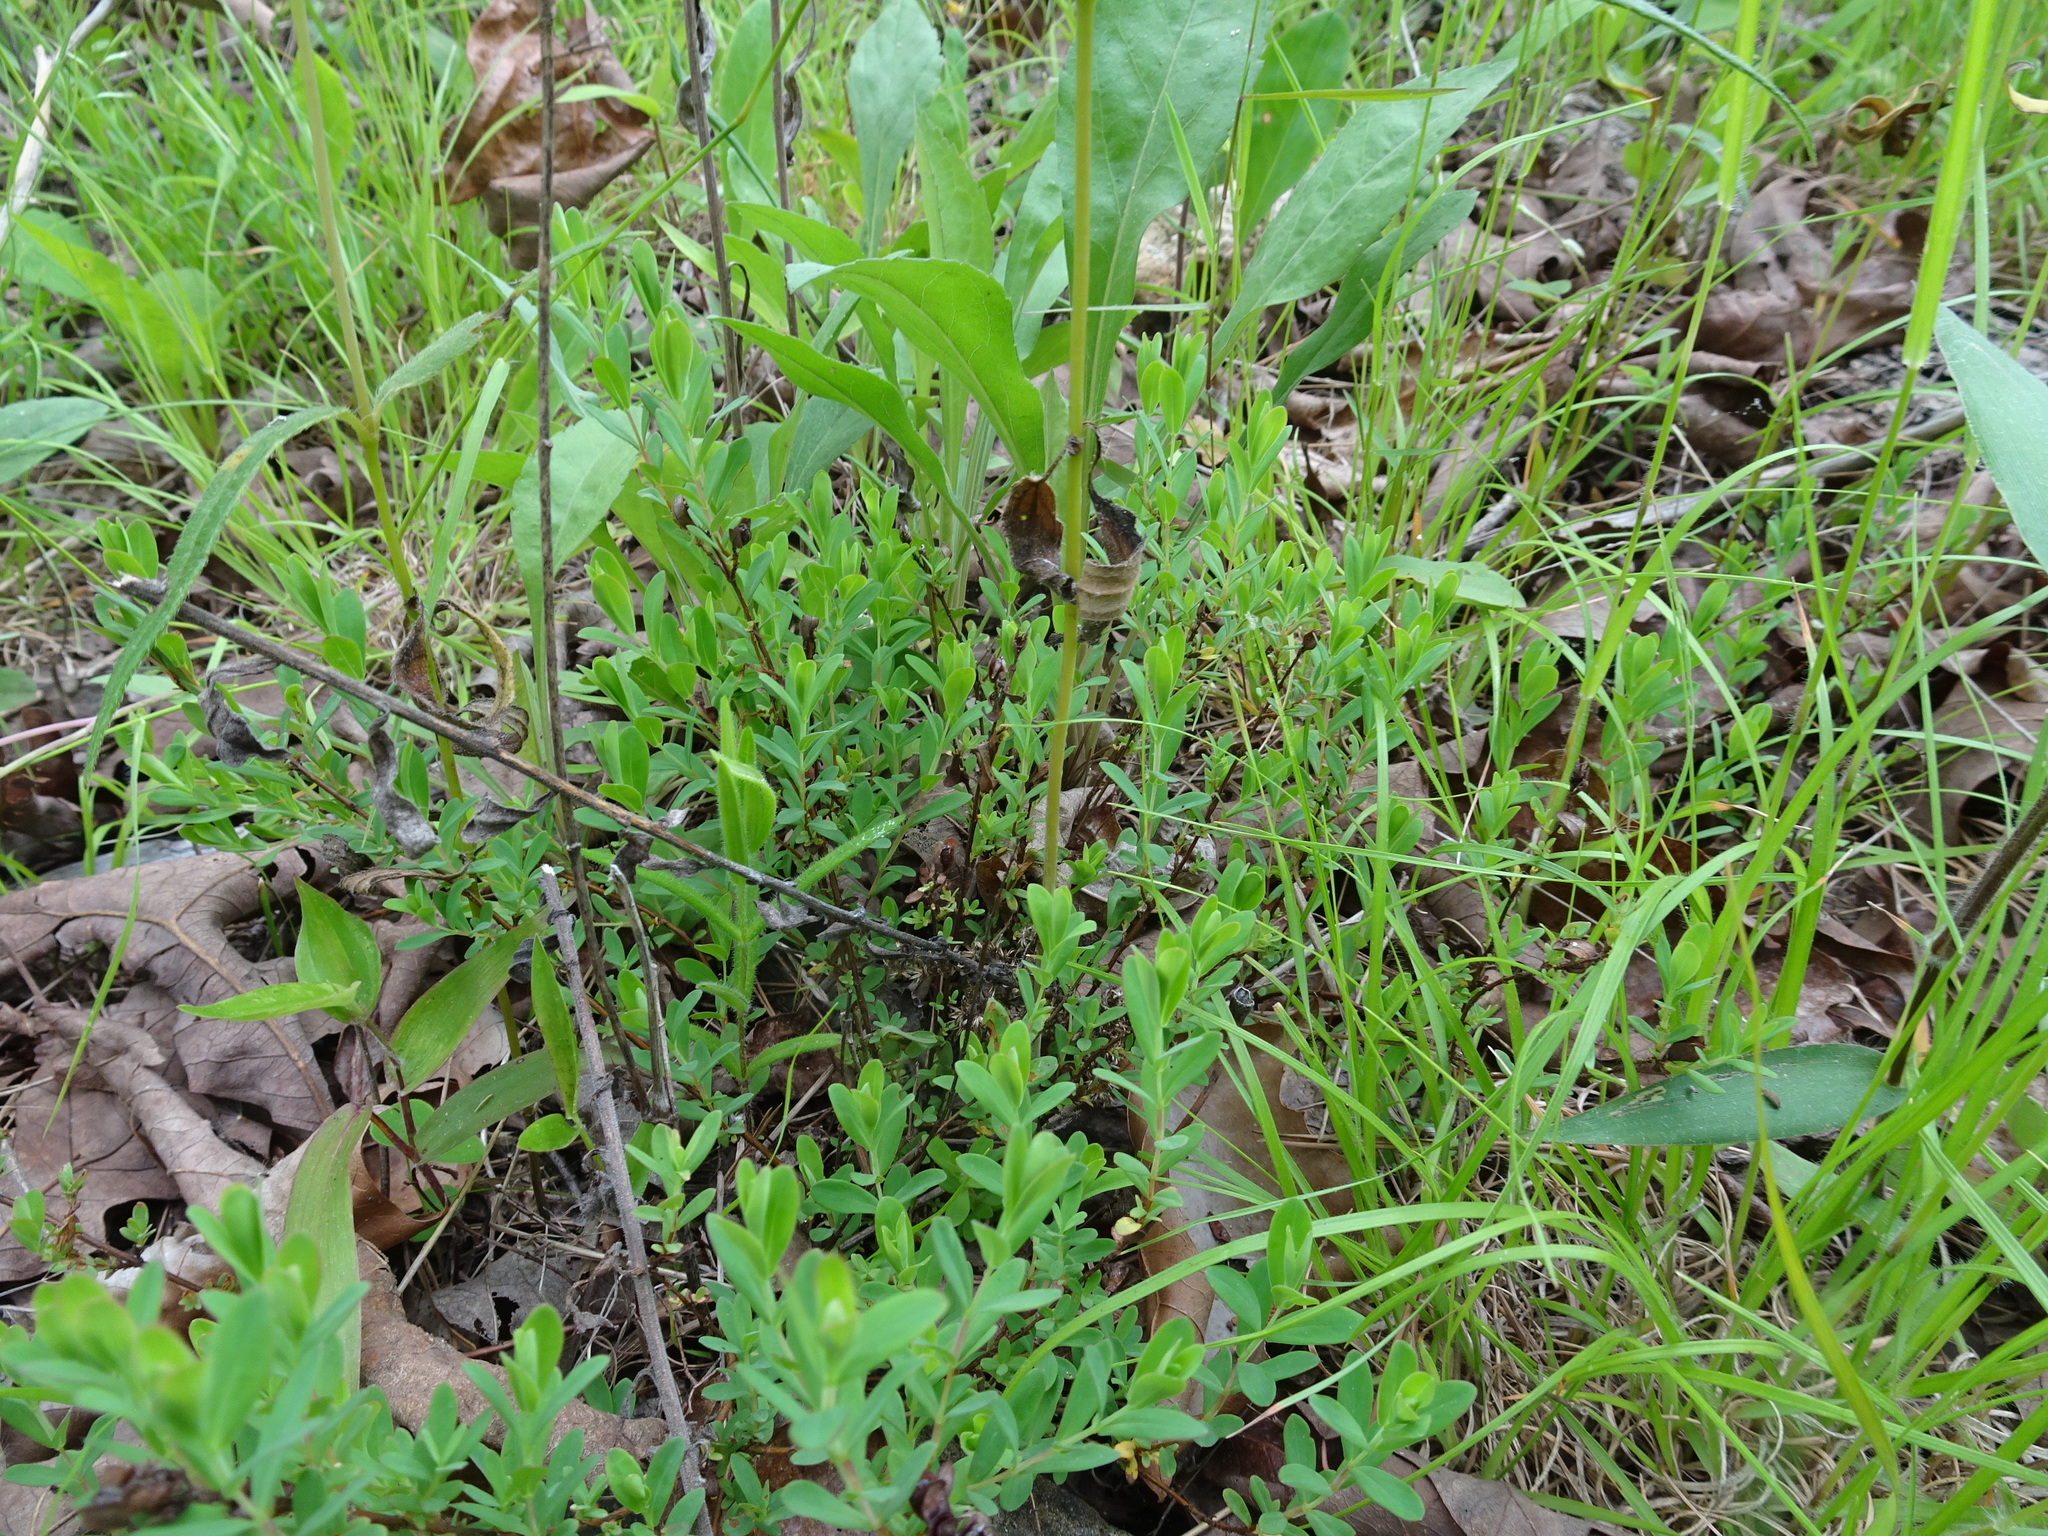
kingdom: Plantae
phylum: Tracheophyta
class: Magnoliopsida
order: Malpighiales
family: Hypericaceae
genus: Hypericum
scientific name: Hypericum hypericoides
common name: St. andrew's cross
